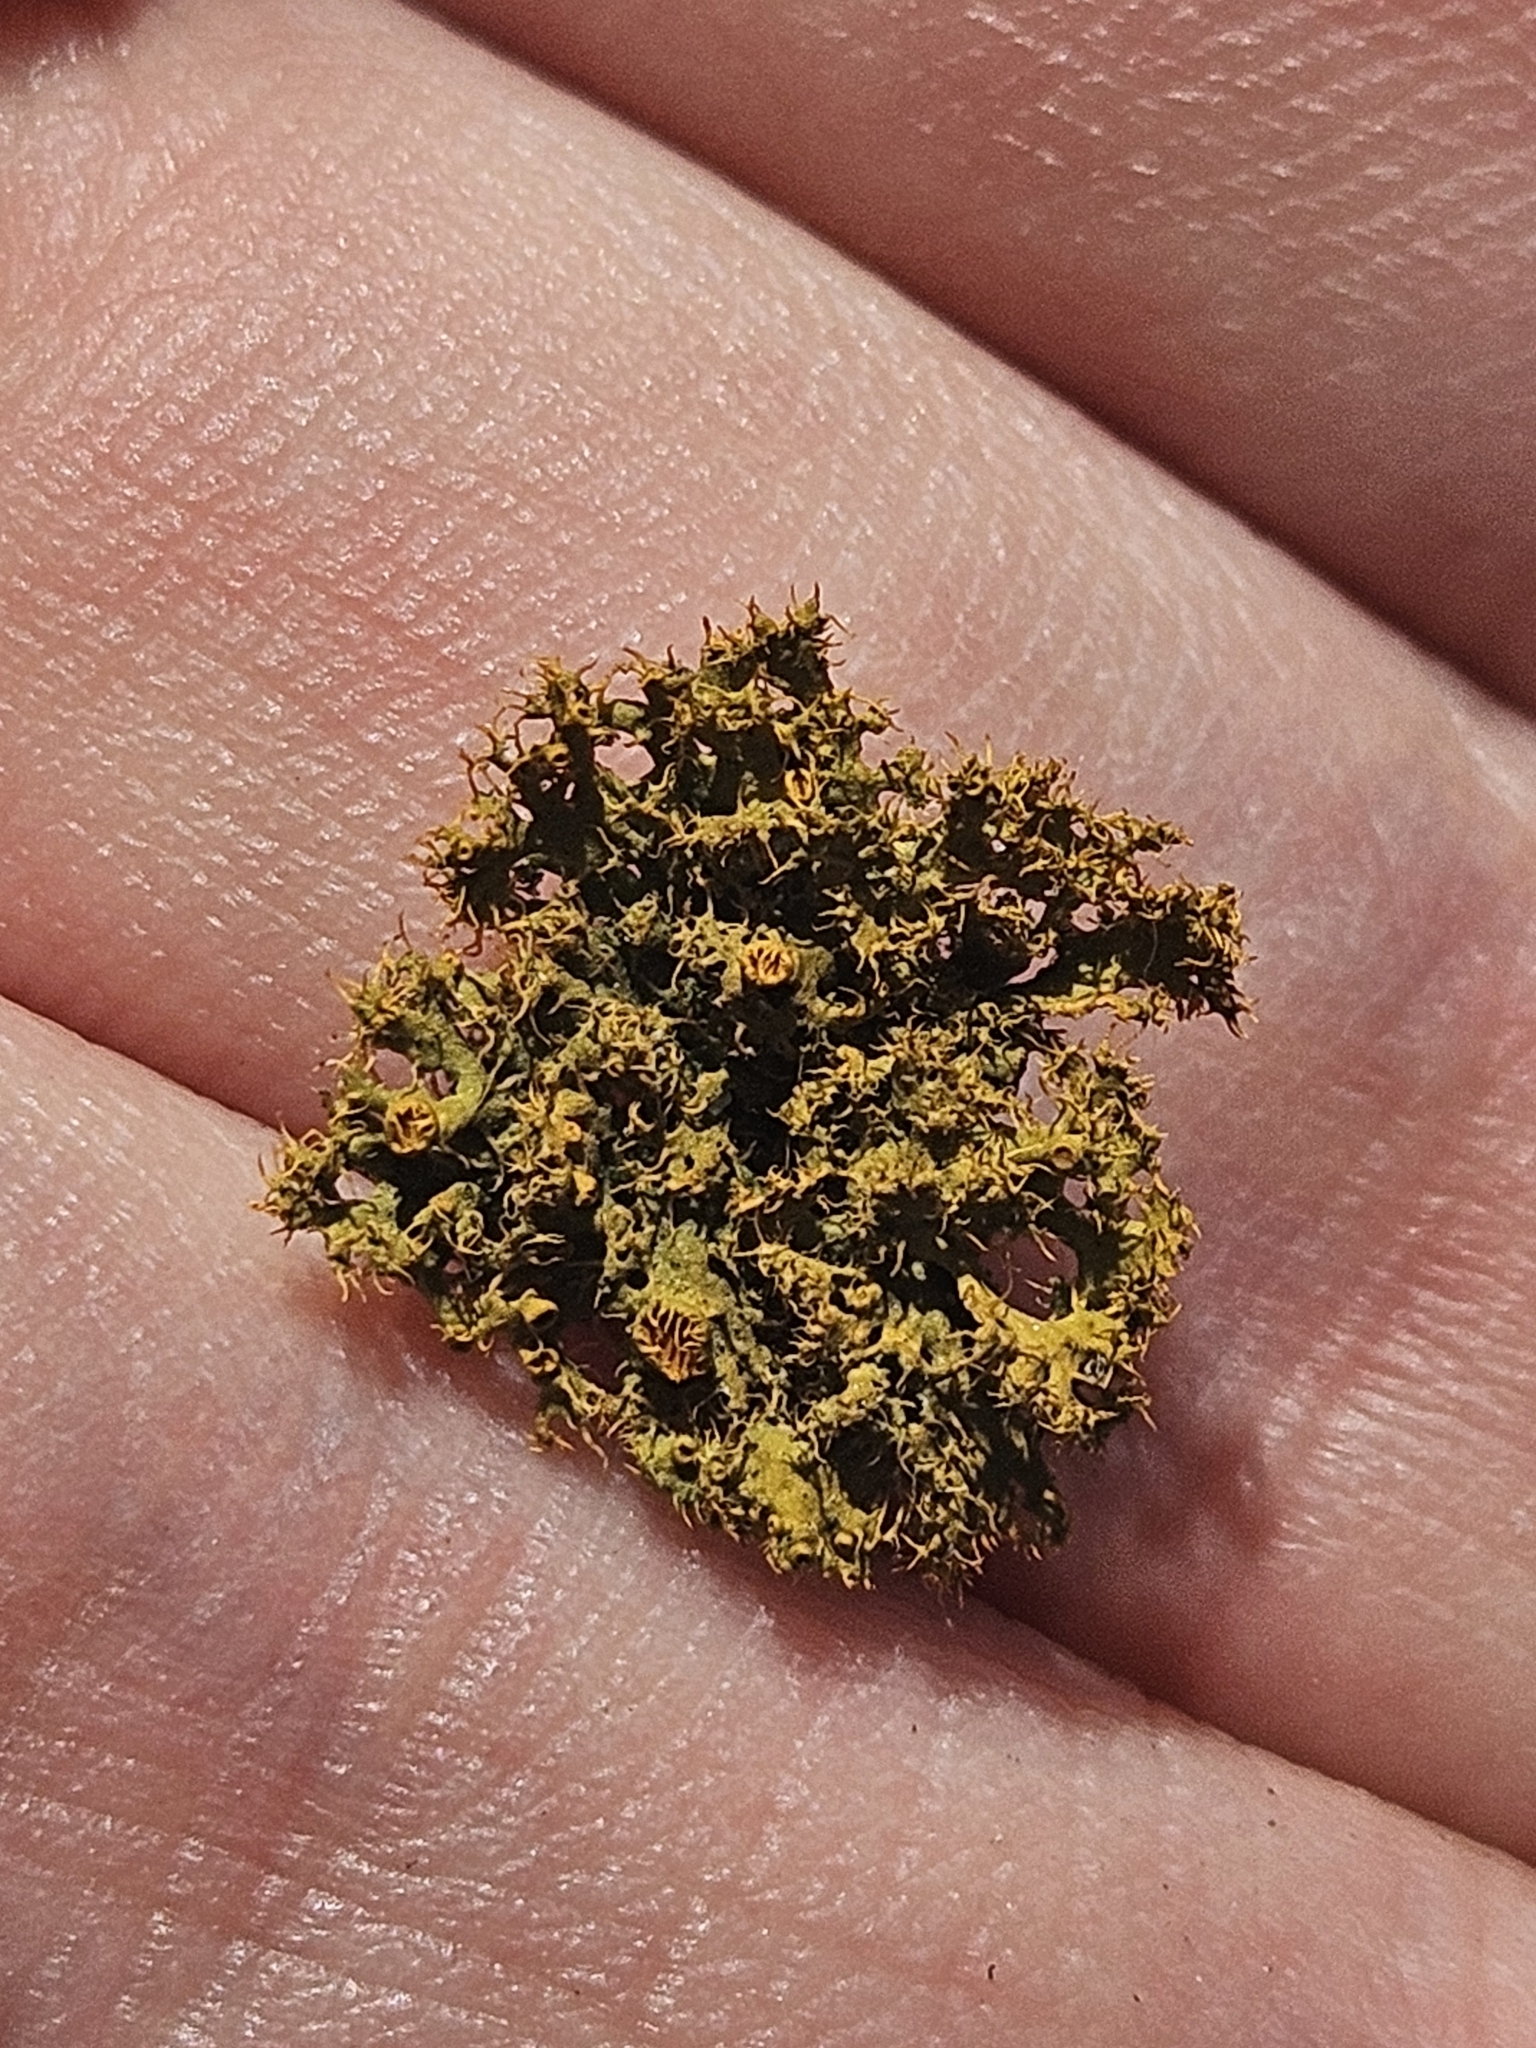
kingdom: Fungi
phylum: Ascomycota
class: Lecanoromycetes
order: Teloschistales
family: Teloschistaceae
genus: Niorma
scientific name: Niorma chrysophthalma
